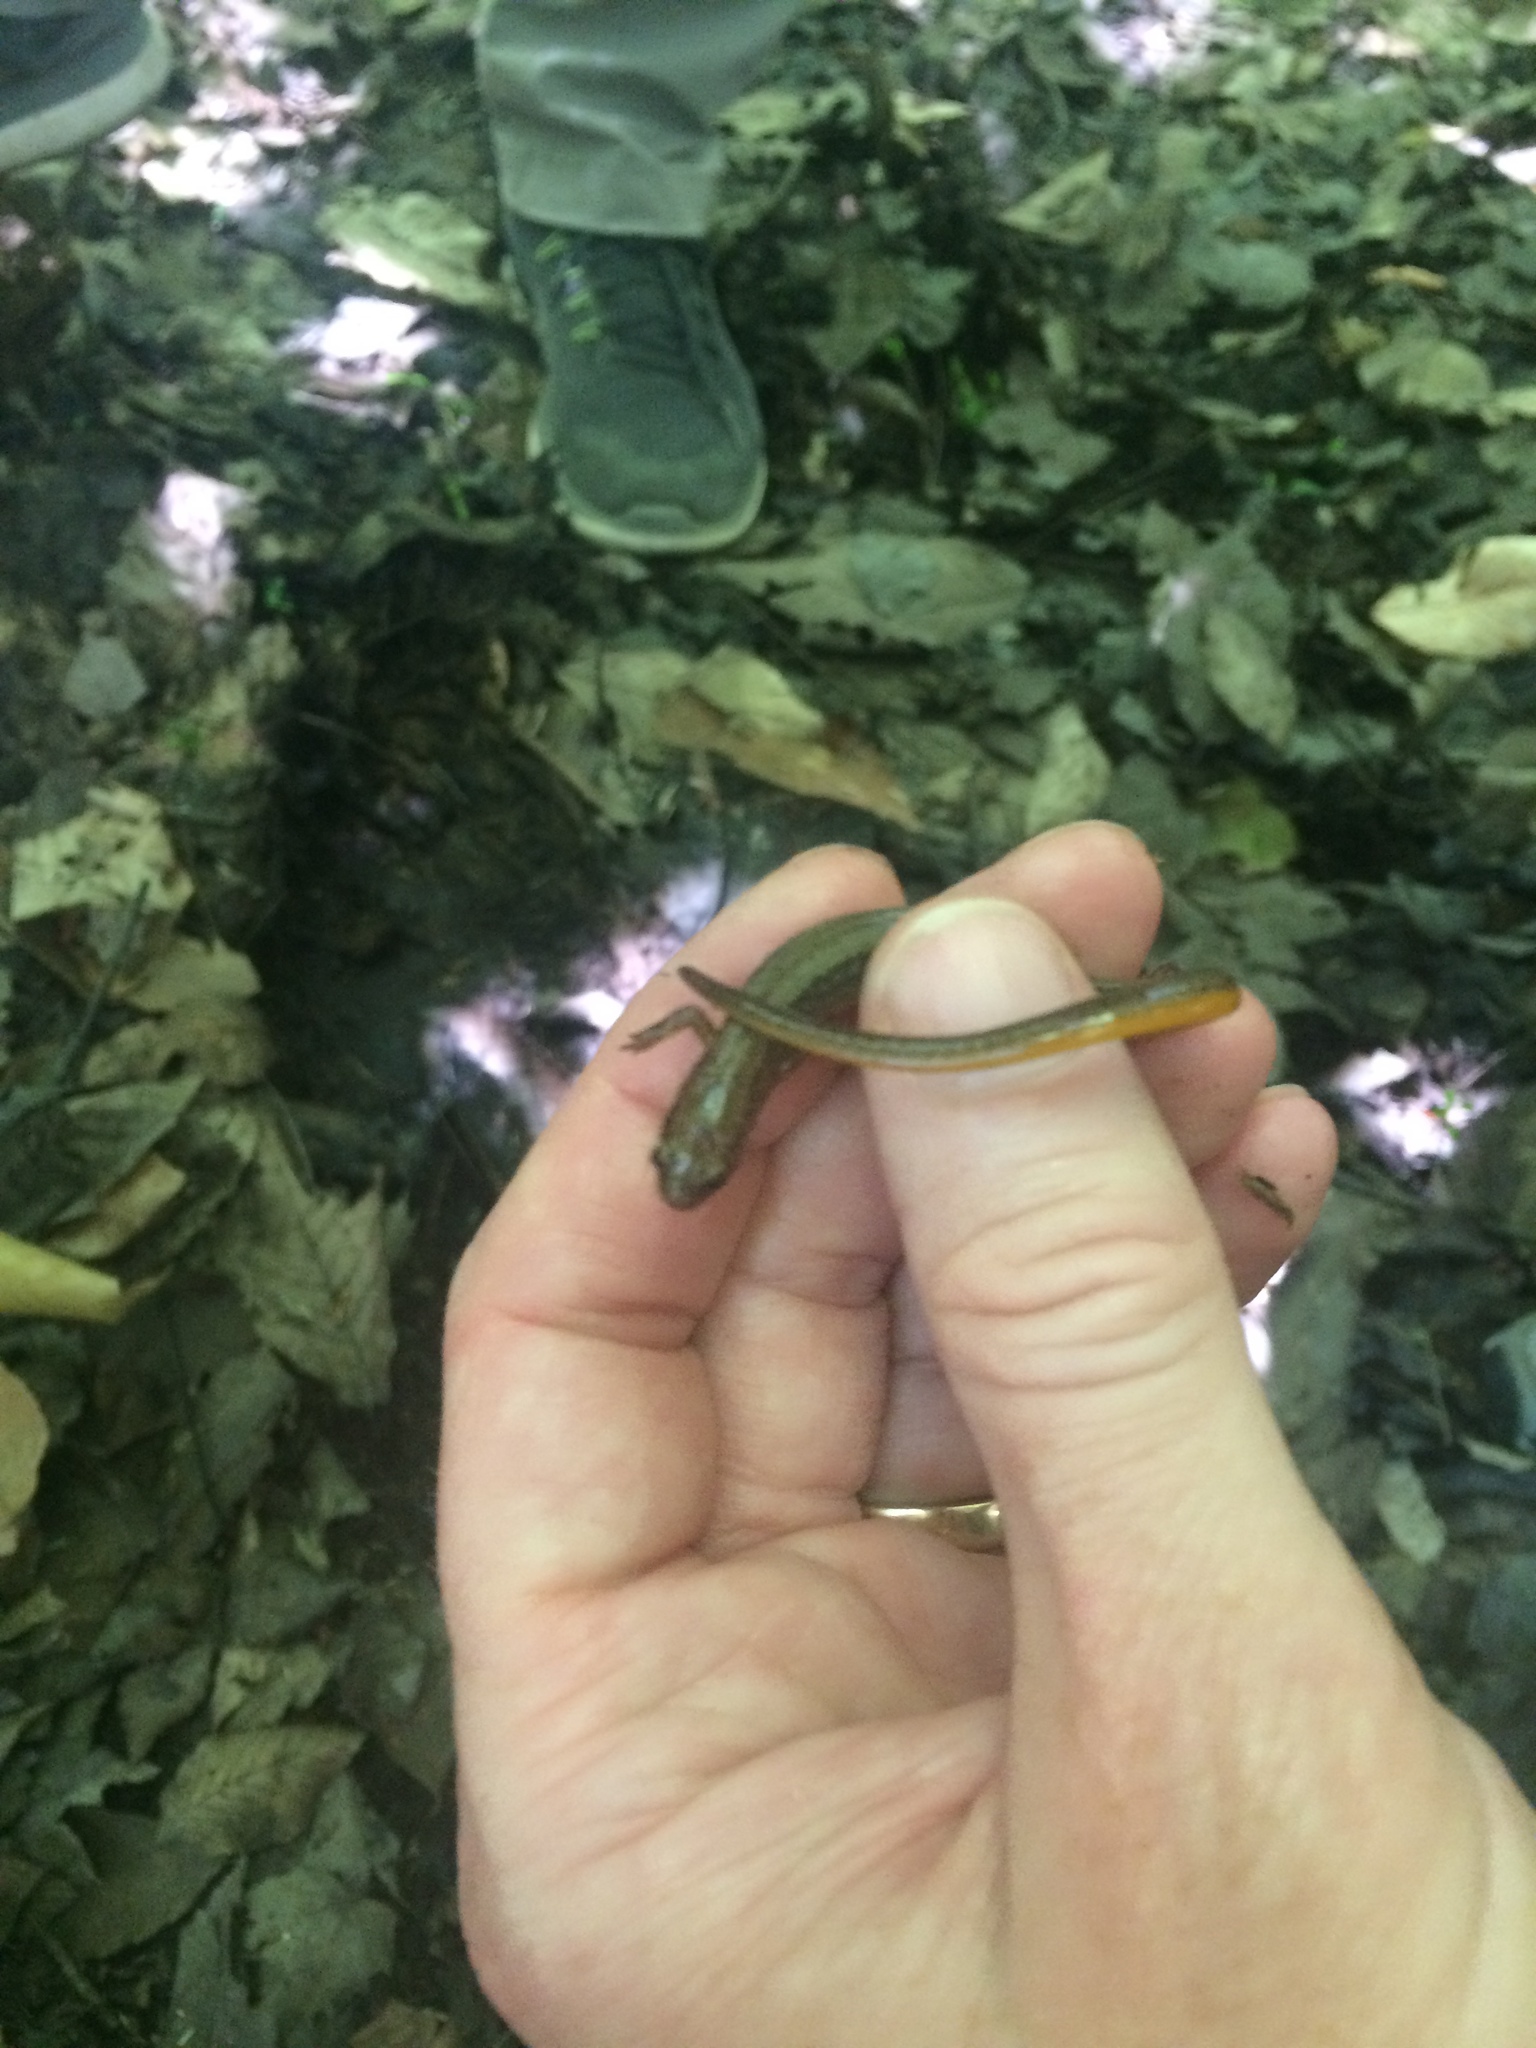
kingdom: Animalia
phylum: Chordata
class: Amphibia
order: Caudata
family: Plethodontidae
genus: Eurycea
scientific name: Eurycea bislineata
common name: Northern two-lined salamander
